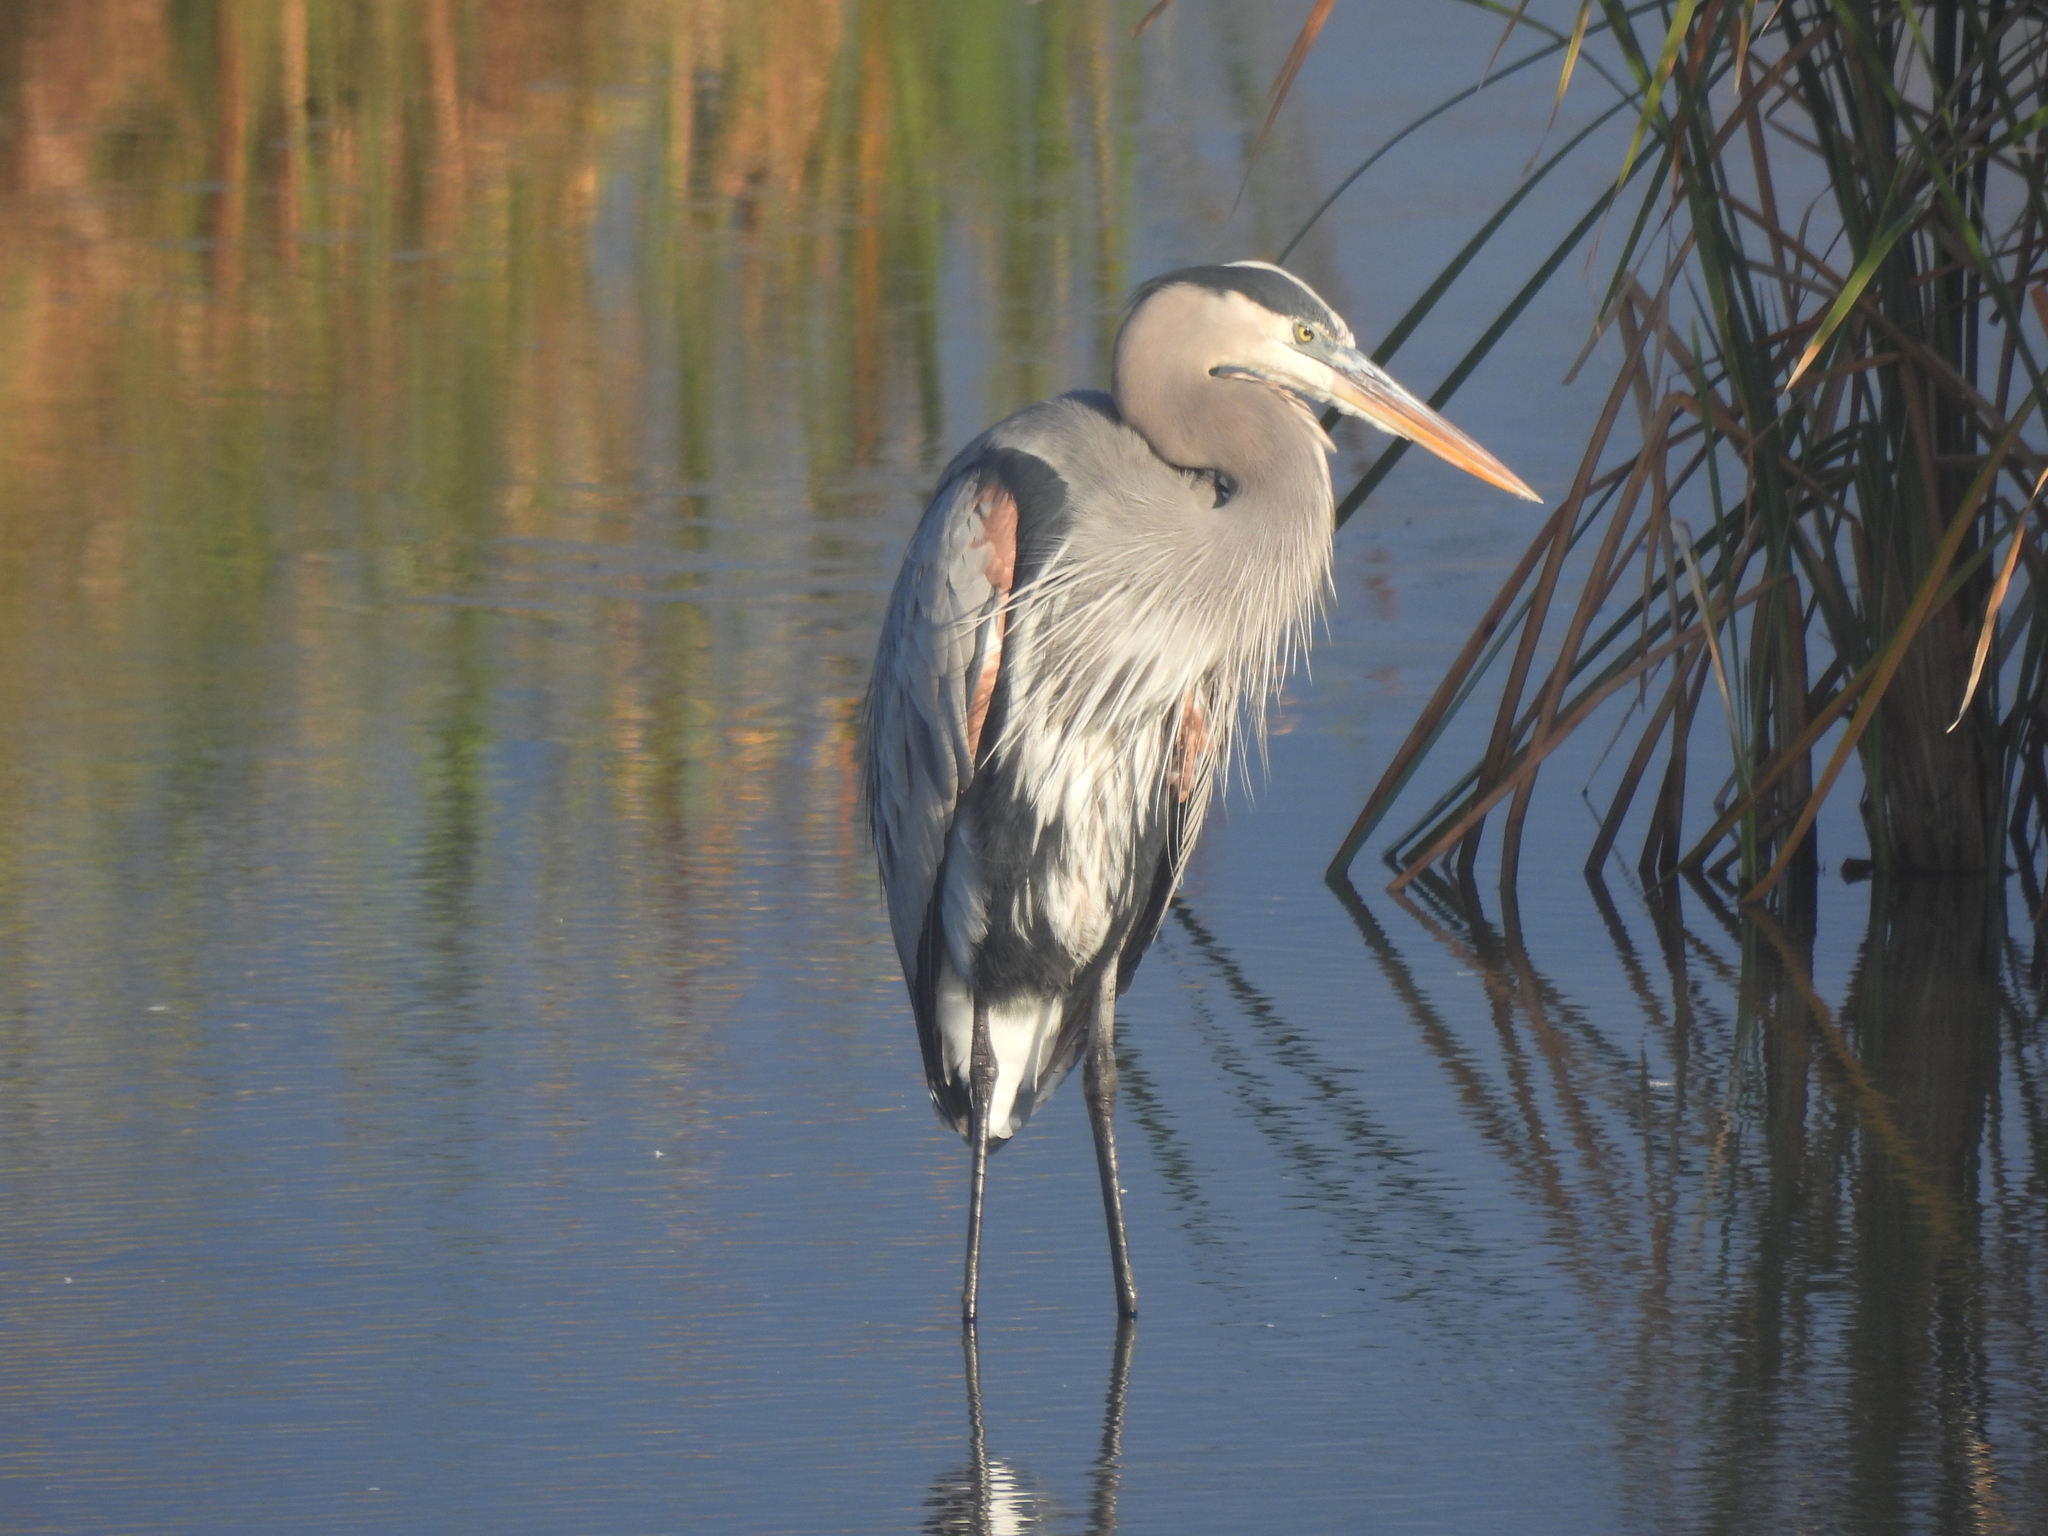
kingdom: Animalia
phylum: Chordata
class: Aves
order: Pelecaniformes
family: Ardeidae
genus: Ardea
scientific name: Ardea herodias
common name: Great blue heron
